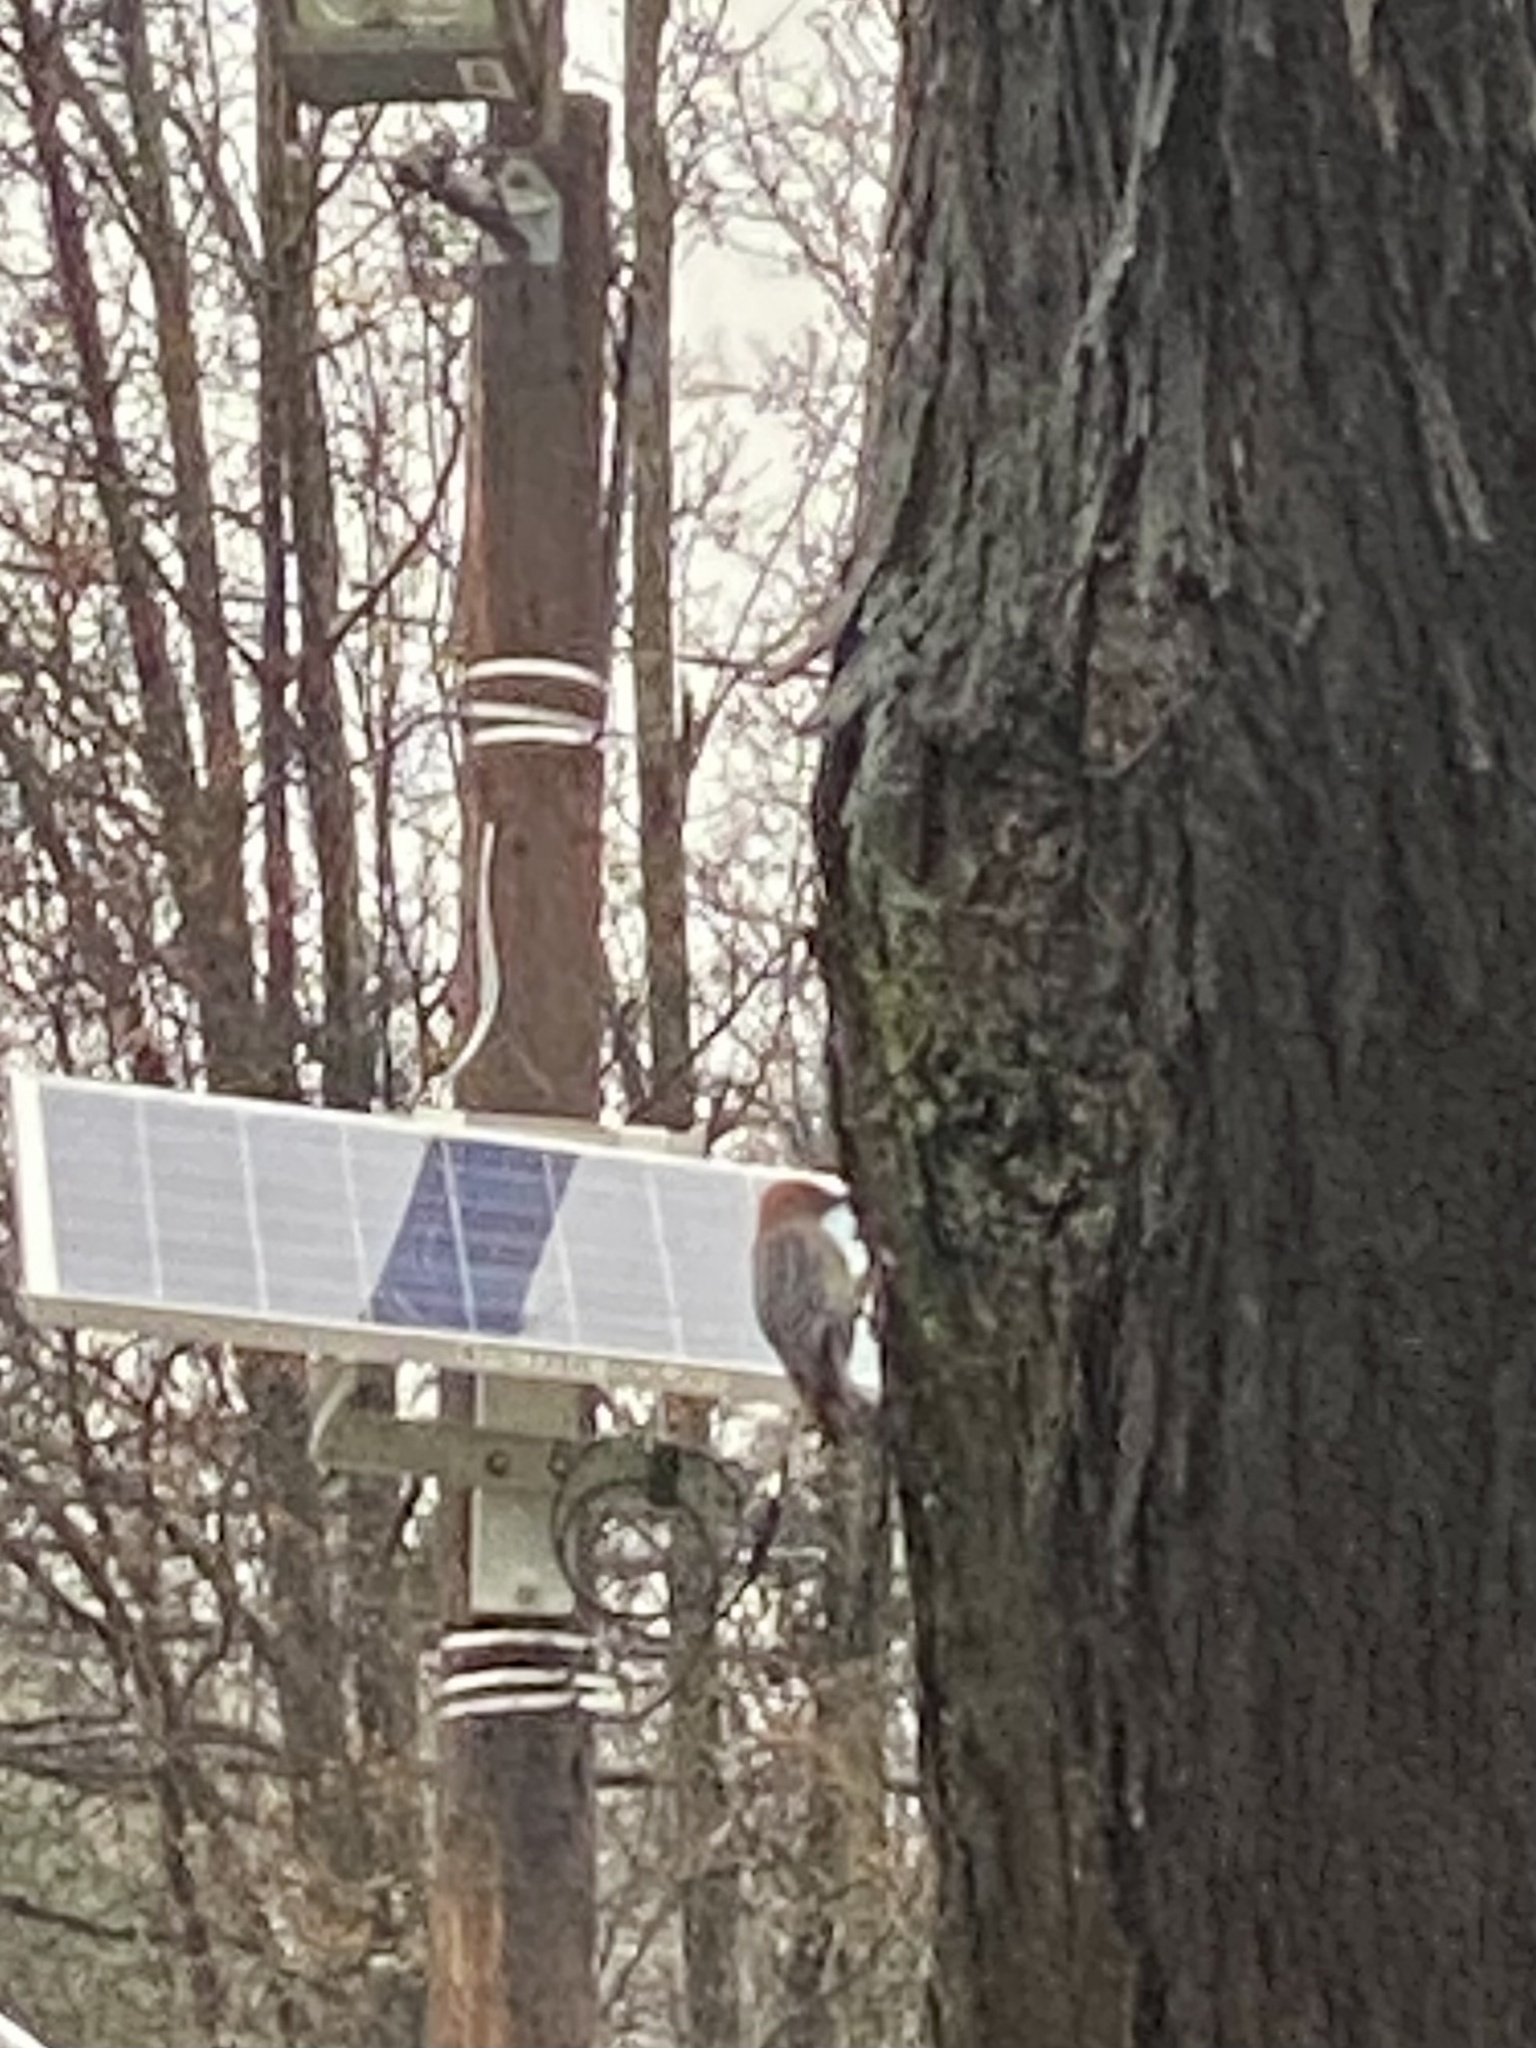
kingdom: Animalia
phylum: Chordata
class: Aves
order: Piciformes
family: Picidae
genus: Melanerpes
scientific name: Melanerpes carolinus
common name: Red-bellied woodpecker
